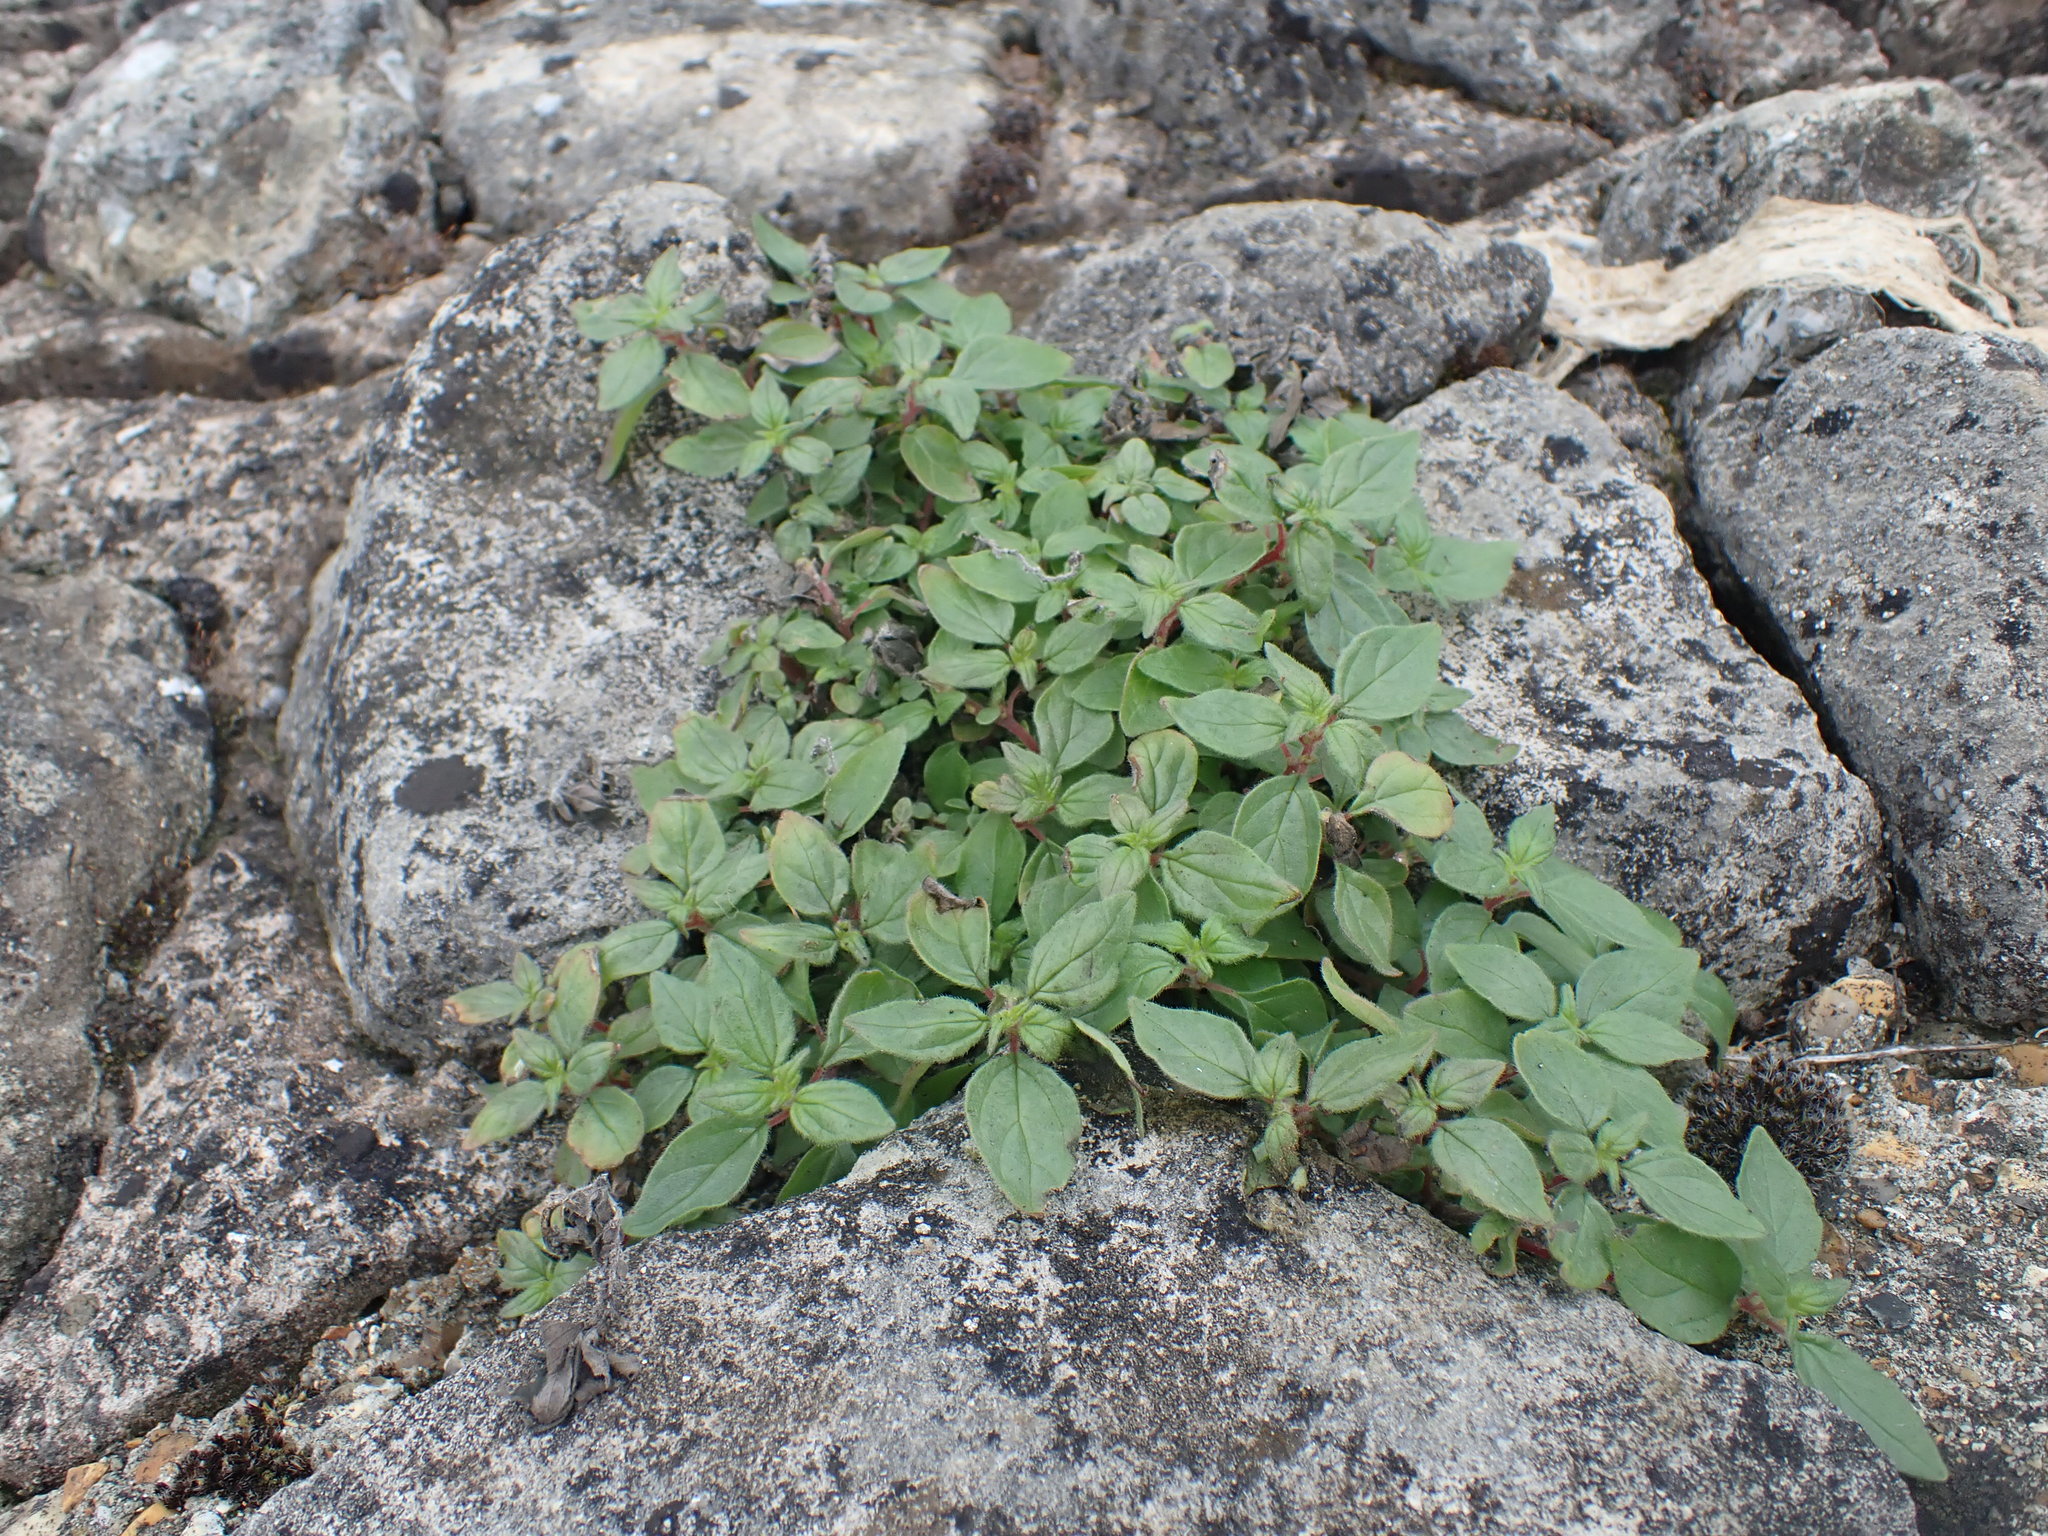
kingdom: Plantae
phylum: Tracheophyta
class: Magnoliopsida
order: Rosales
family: Urticaceae
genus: Parietaria
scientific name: Parietaria judaica
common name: Pellitory-of-the-wall
